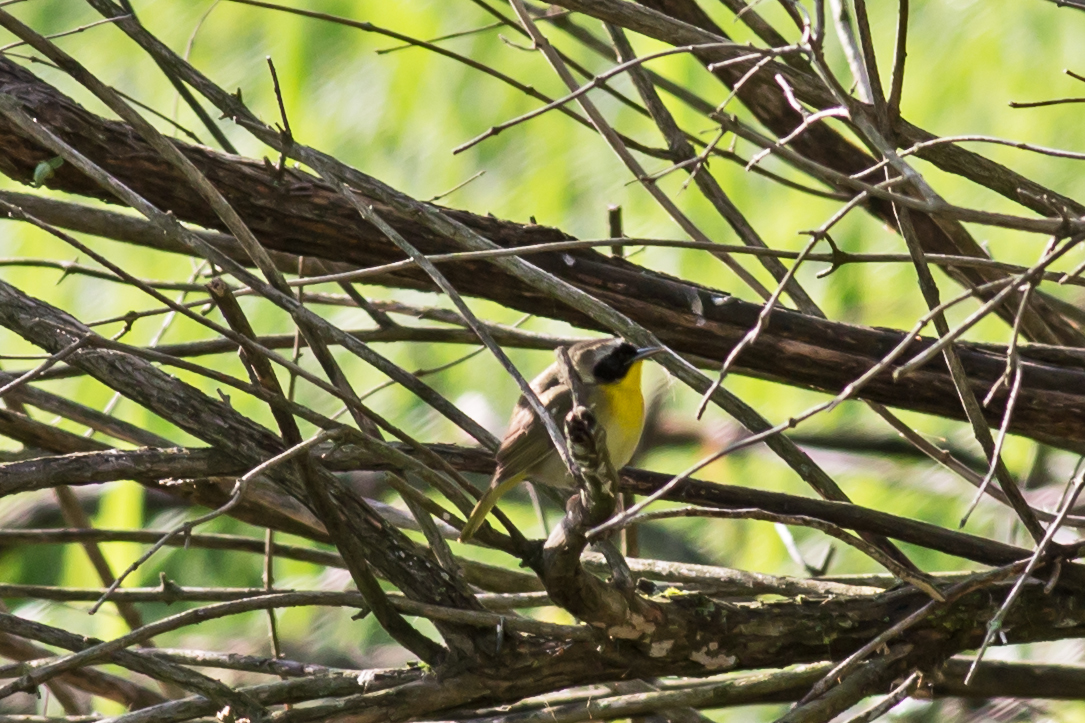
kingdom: Animalia
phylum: Chordata
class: Aves
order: Passeriformes
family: Parulidae
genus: Geothlypis
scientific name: Geothlypis trichas
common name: Common yellowthroat
